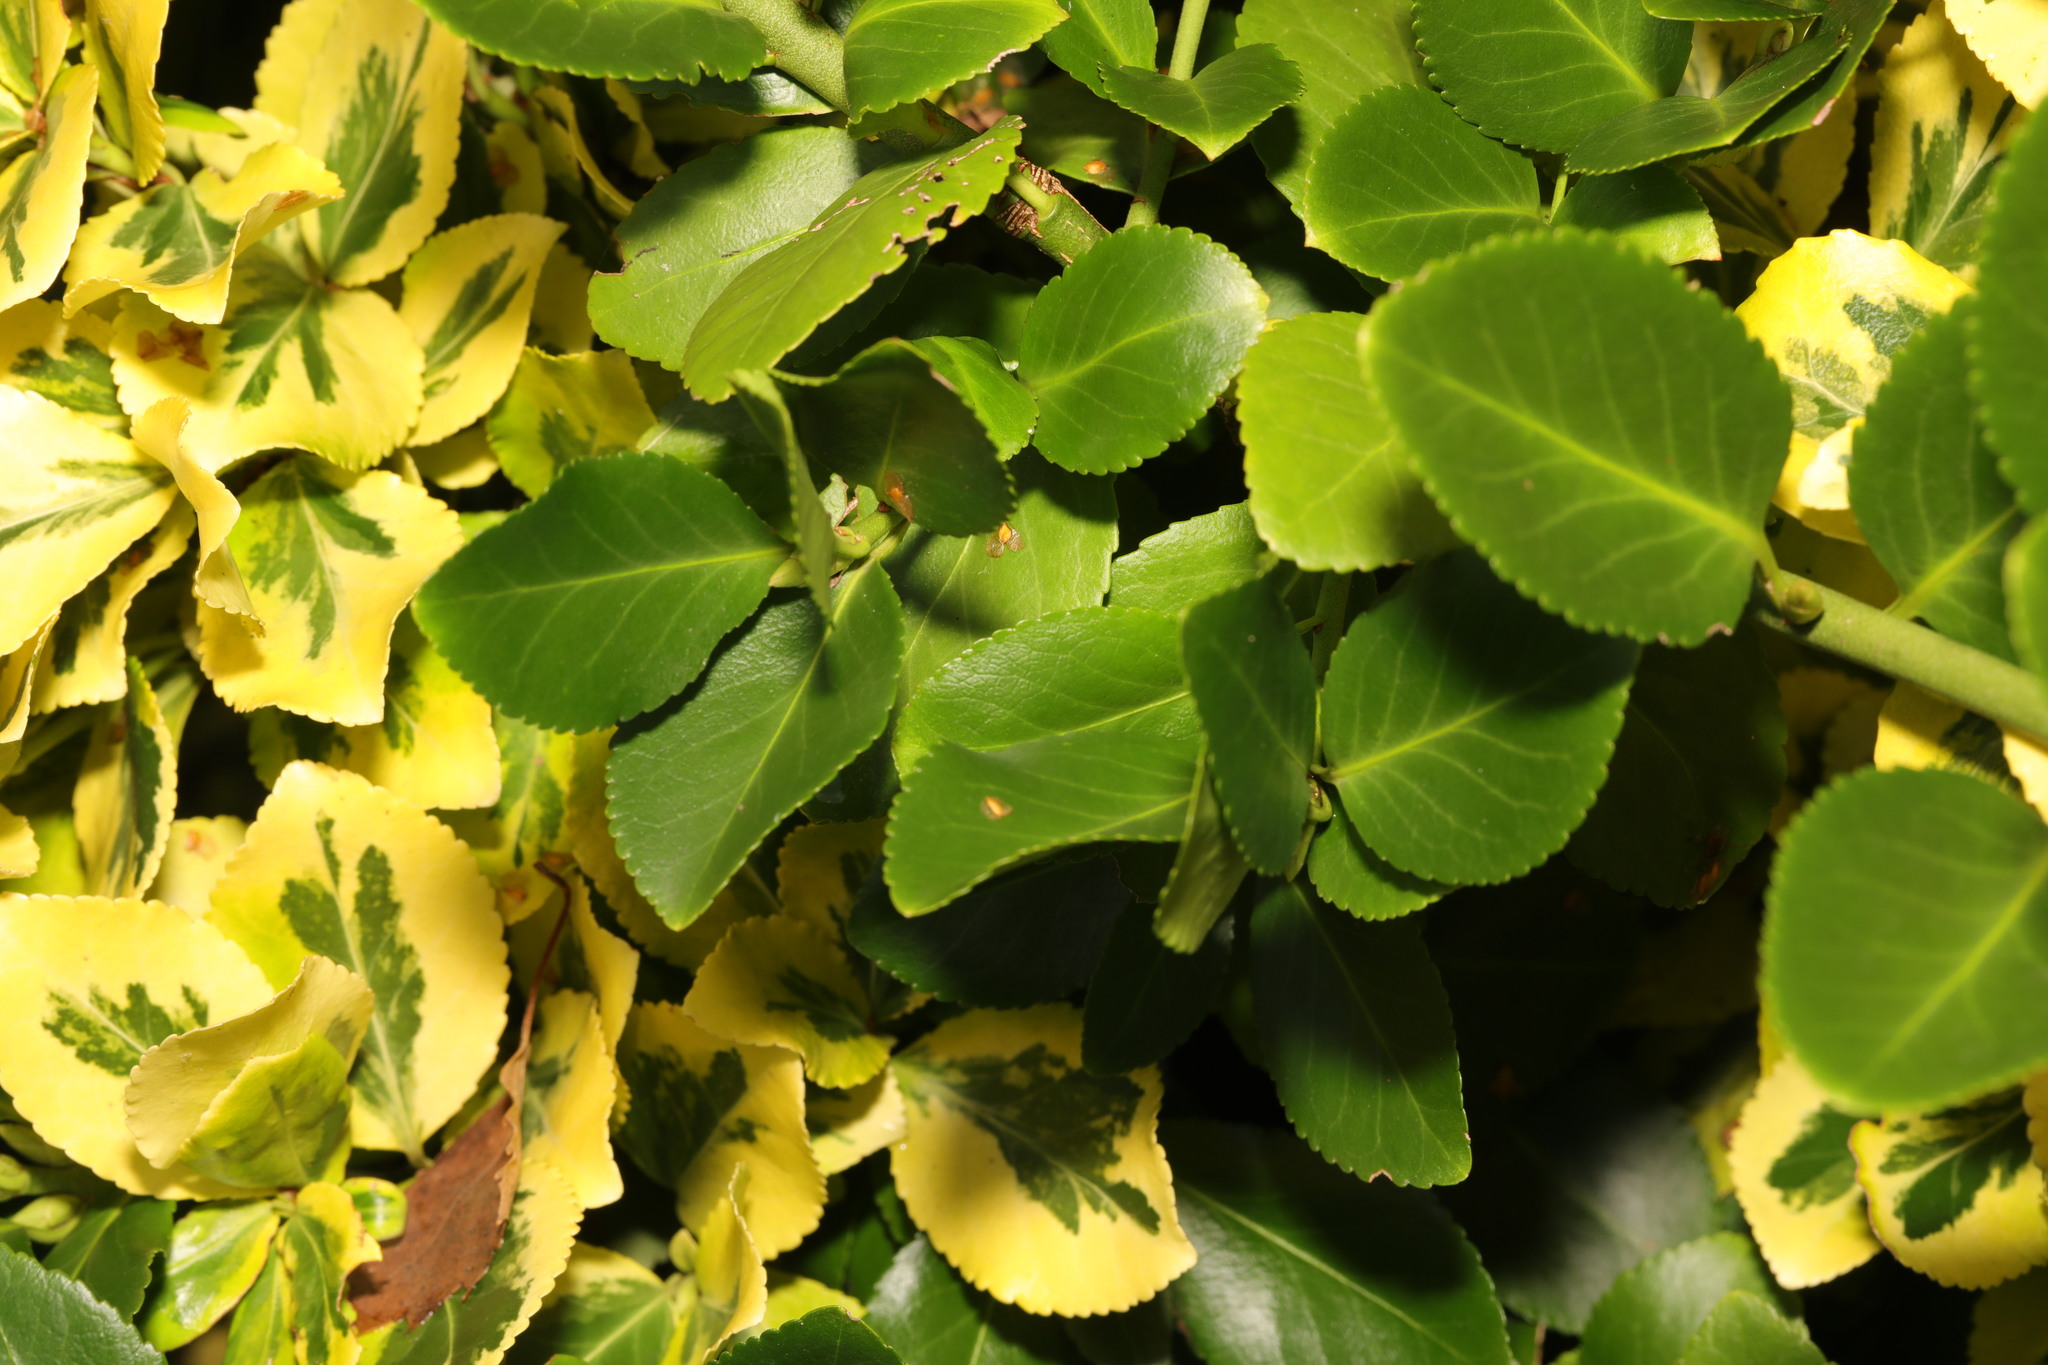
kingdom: Plantae
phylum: Tracheophyta
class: Magnoliopsida
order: Celastrales
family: Celastraceae
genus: Euonymus
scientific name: Euonymus japonicus
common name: Japanese spindletree
